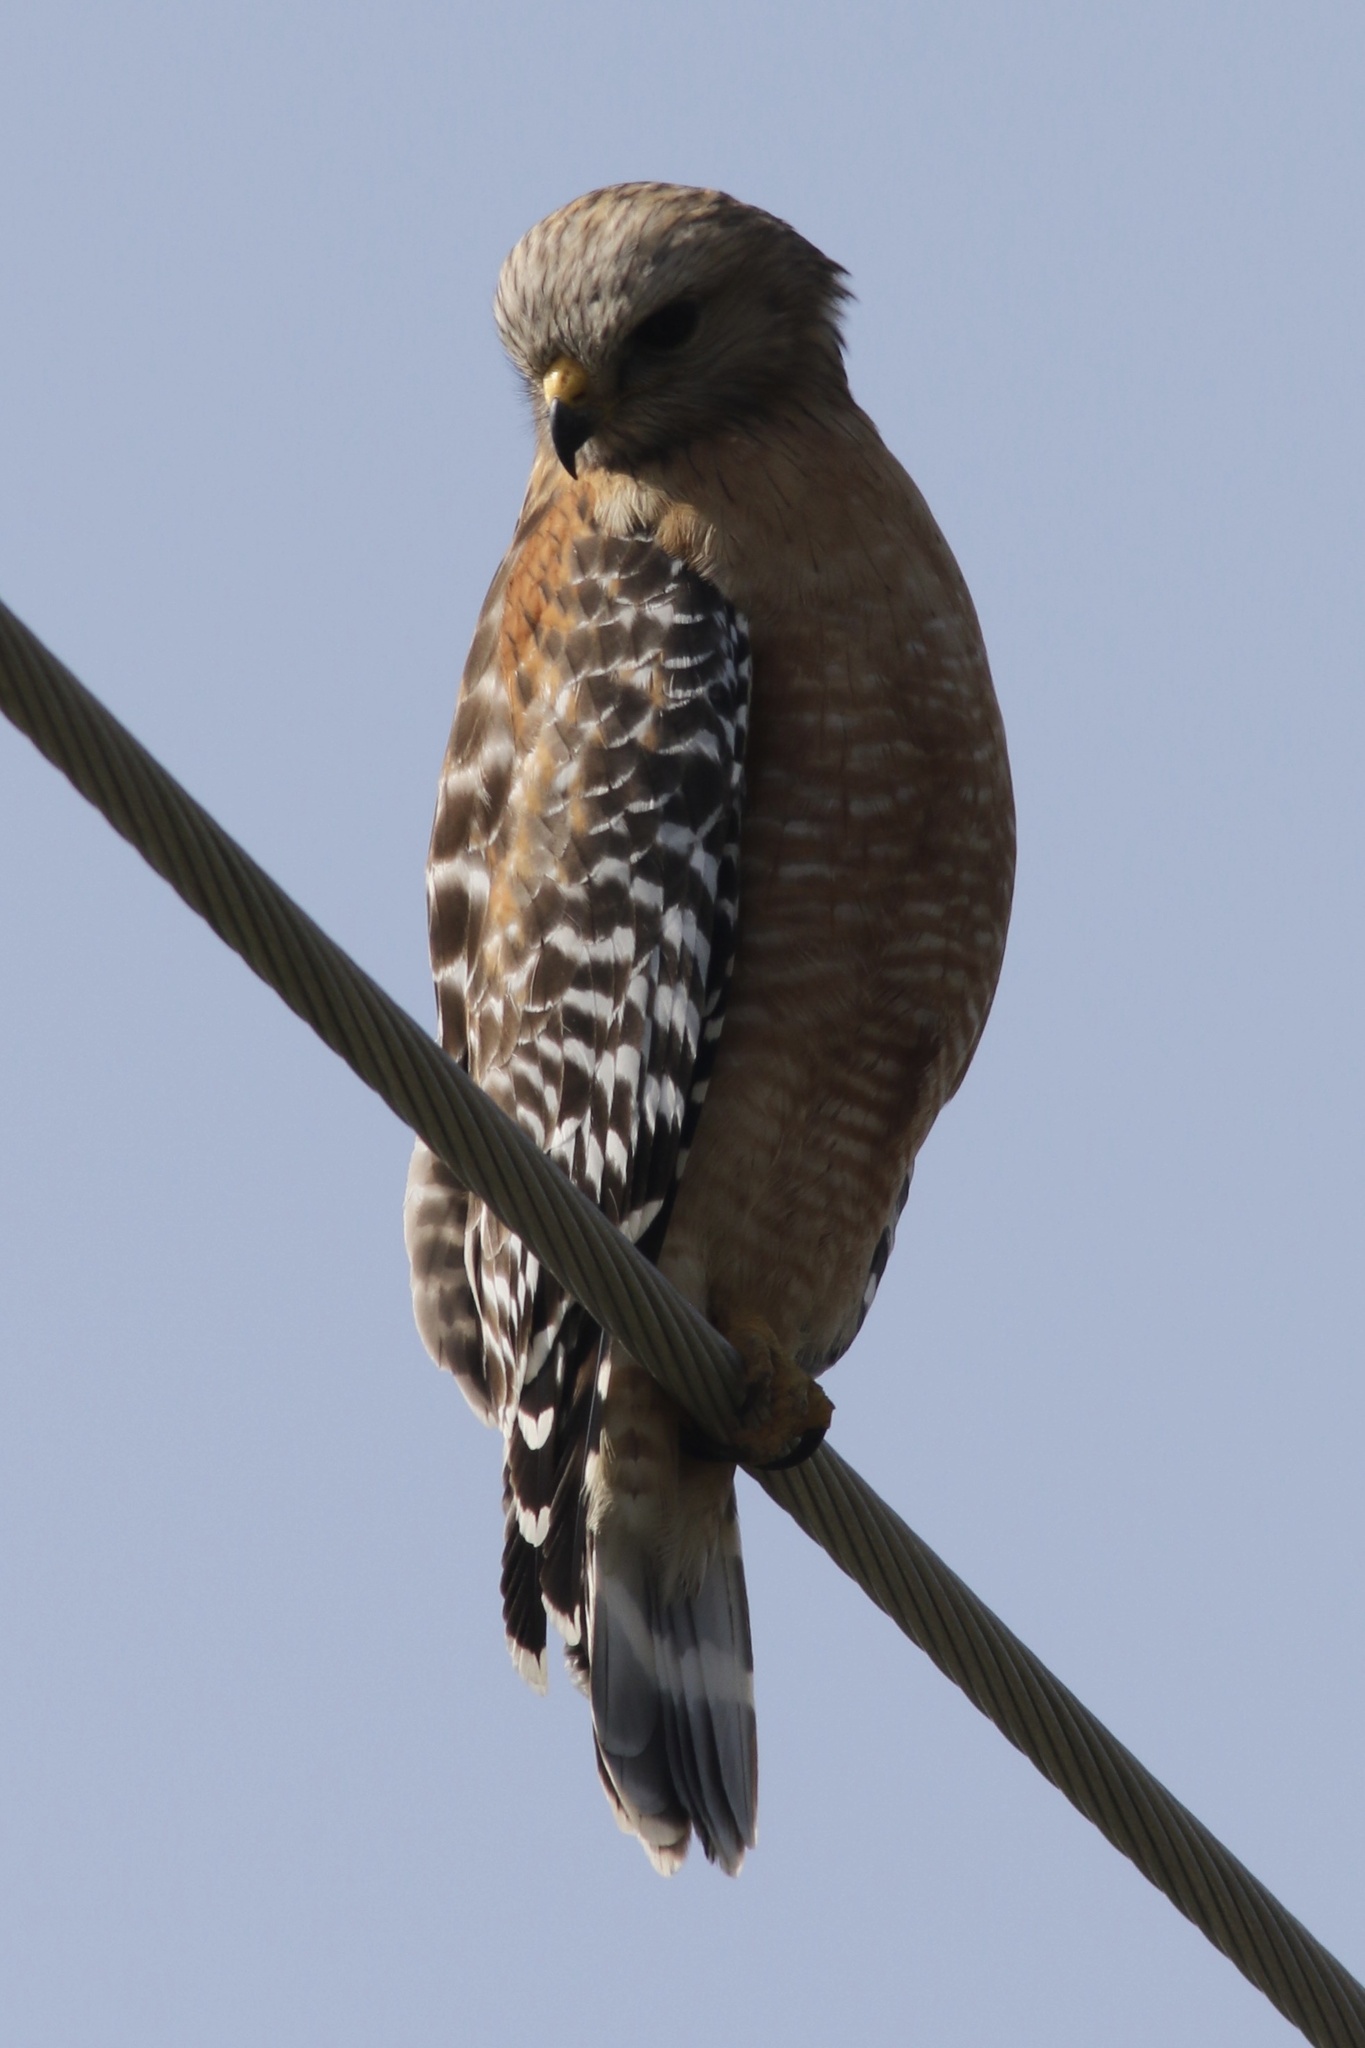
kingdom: Animalia
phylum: Chordata
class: Aves
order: Accipitriformes
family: Accipitridae
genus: Buteo
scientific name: Buteo lineatus
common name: Red-shouldered hawk
